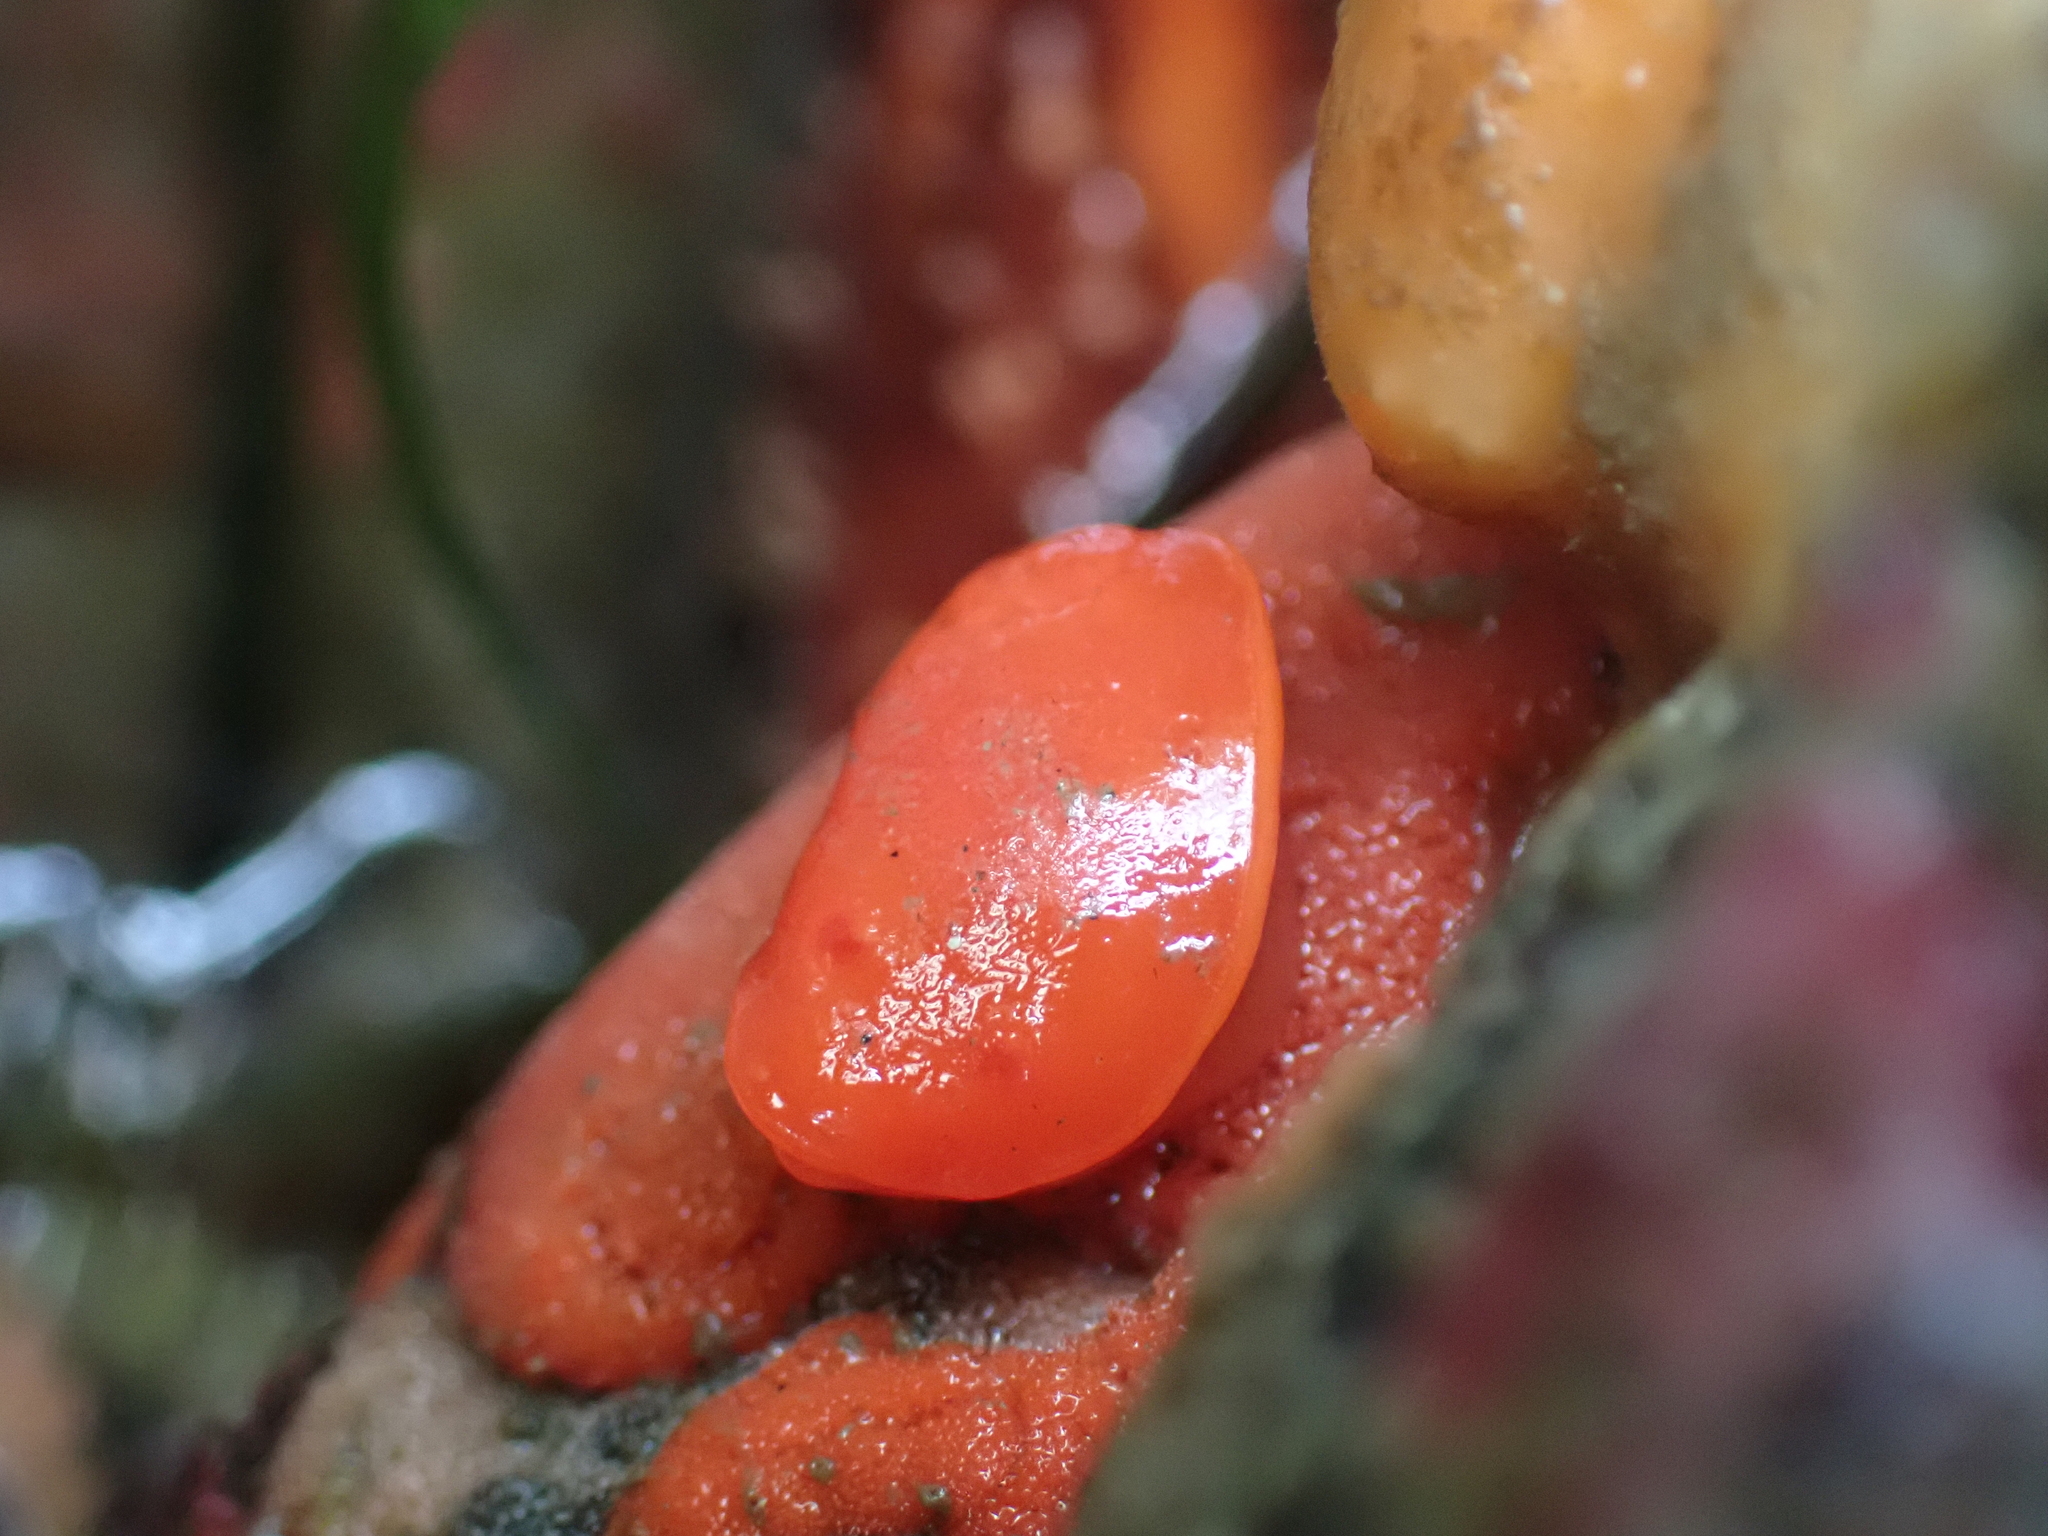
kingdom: Animalia
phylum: Mollusca
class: Gastropoda
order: Nudibranchia
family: Discodorididae
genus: Rostanga
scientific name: Rostanga pulchra
